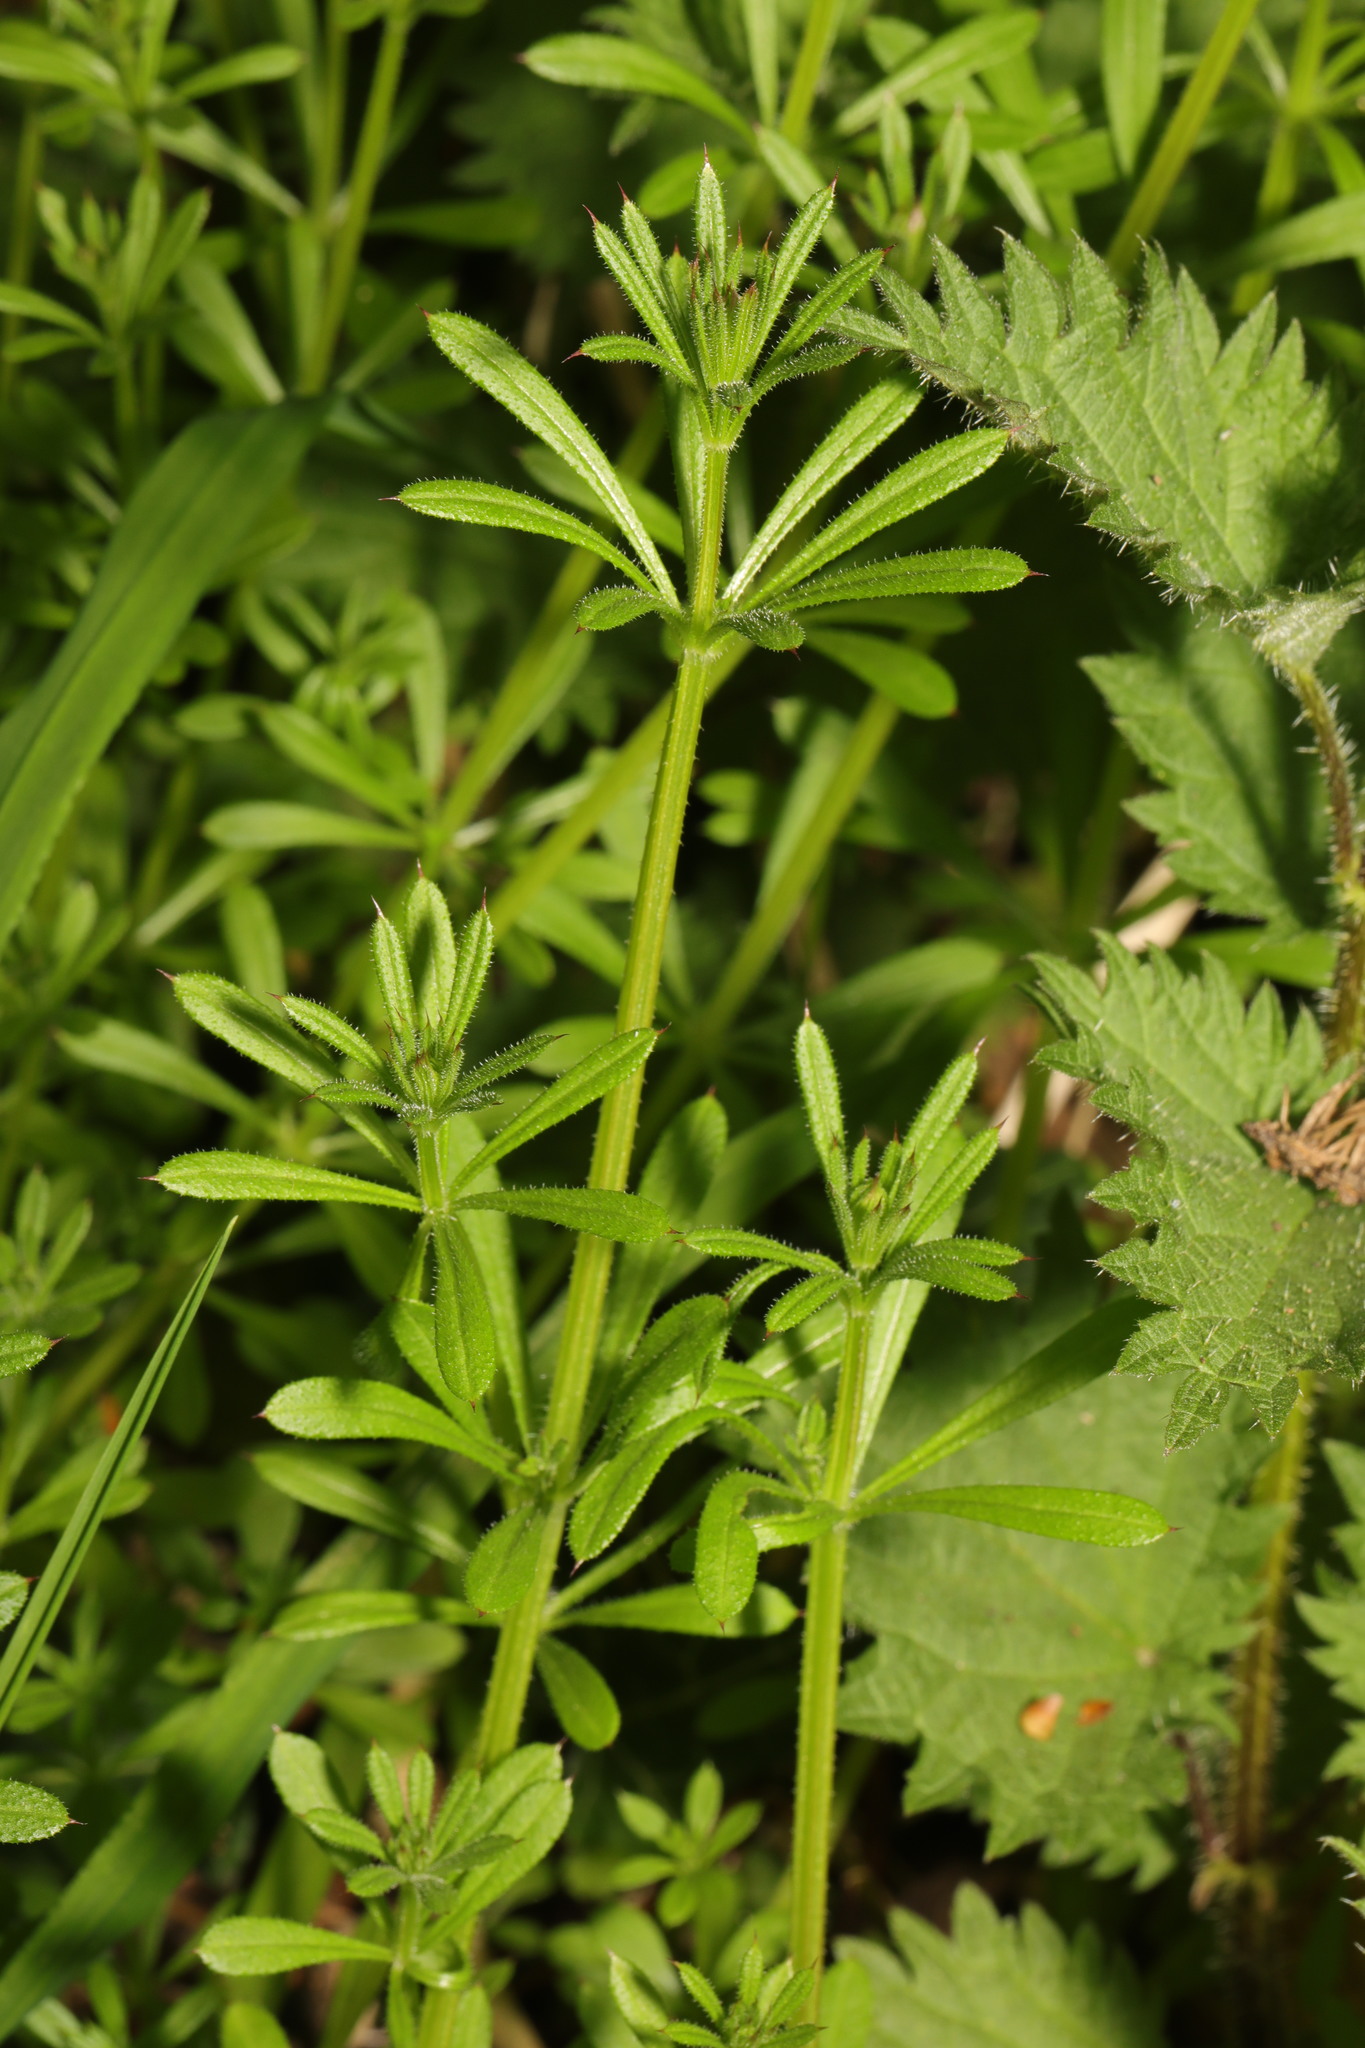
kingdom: Plantae
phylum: Tracheophyta
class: Magnoliopsida
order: Gentianales
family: Rubiaceae
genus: Galium
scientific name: Galium aparine
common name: Cleavers
